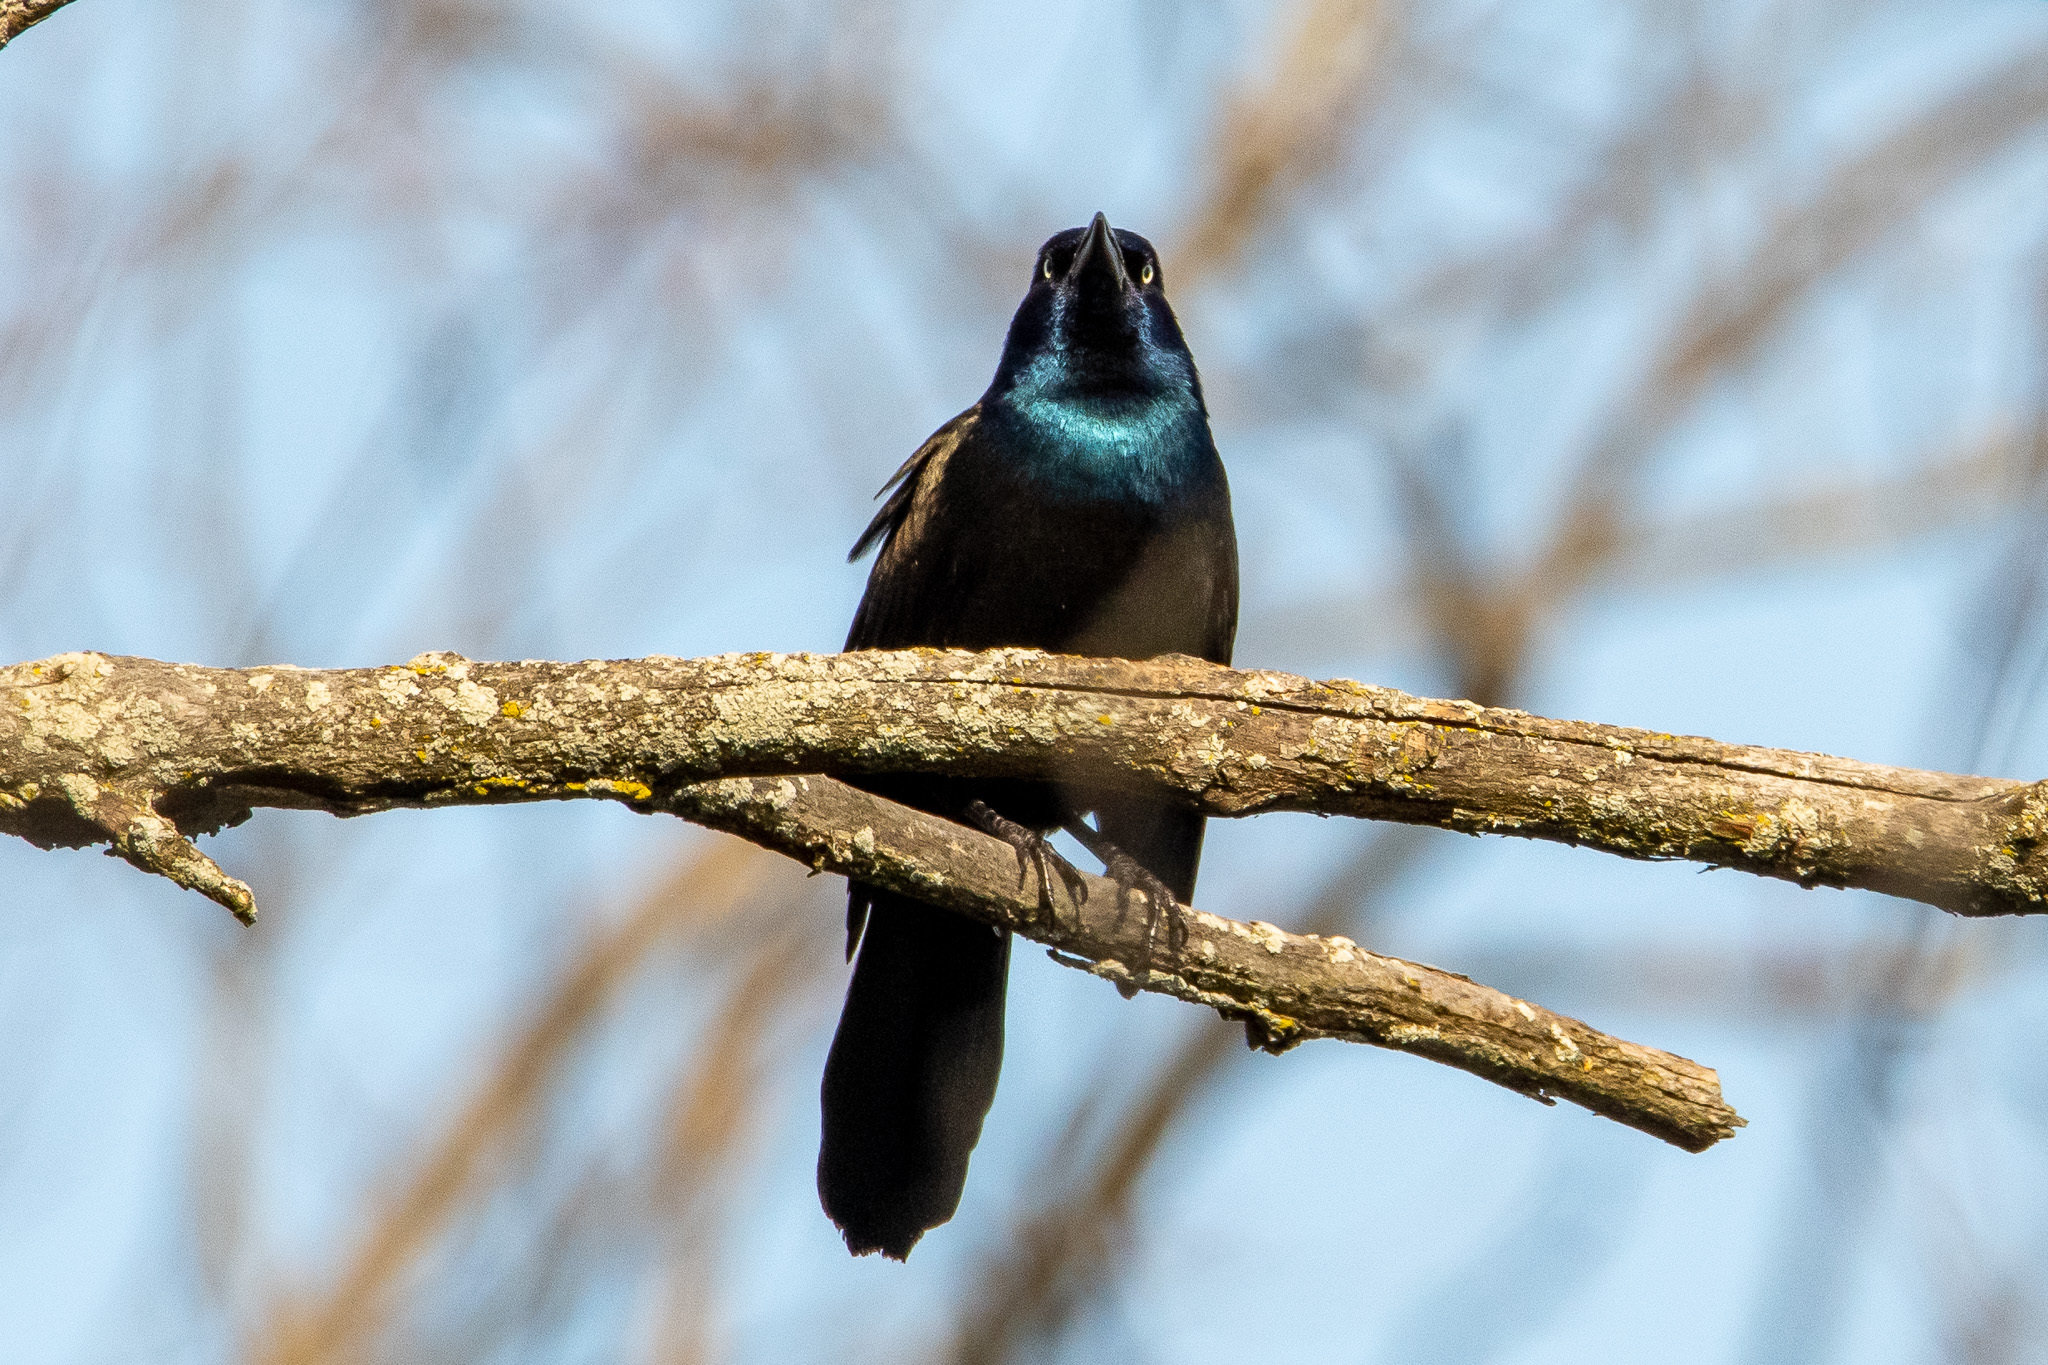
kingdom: Animalia
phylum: Chordata
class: Aves
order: Passeriformes
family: Icteridae
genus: Quiscalus
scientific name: Quiscalus quiscula
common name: Common grackle
